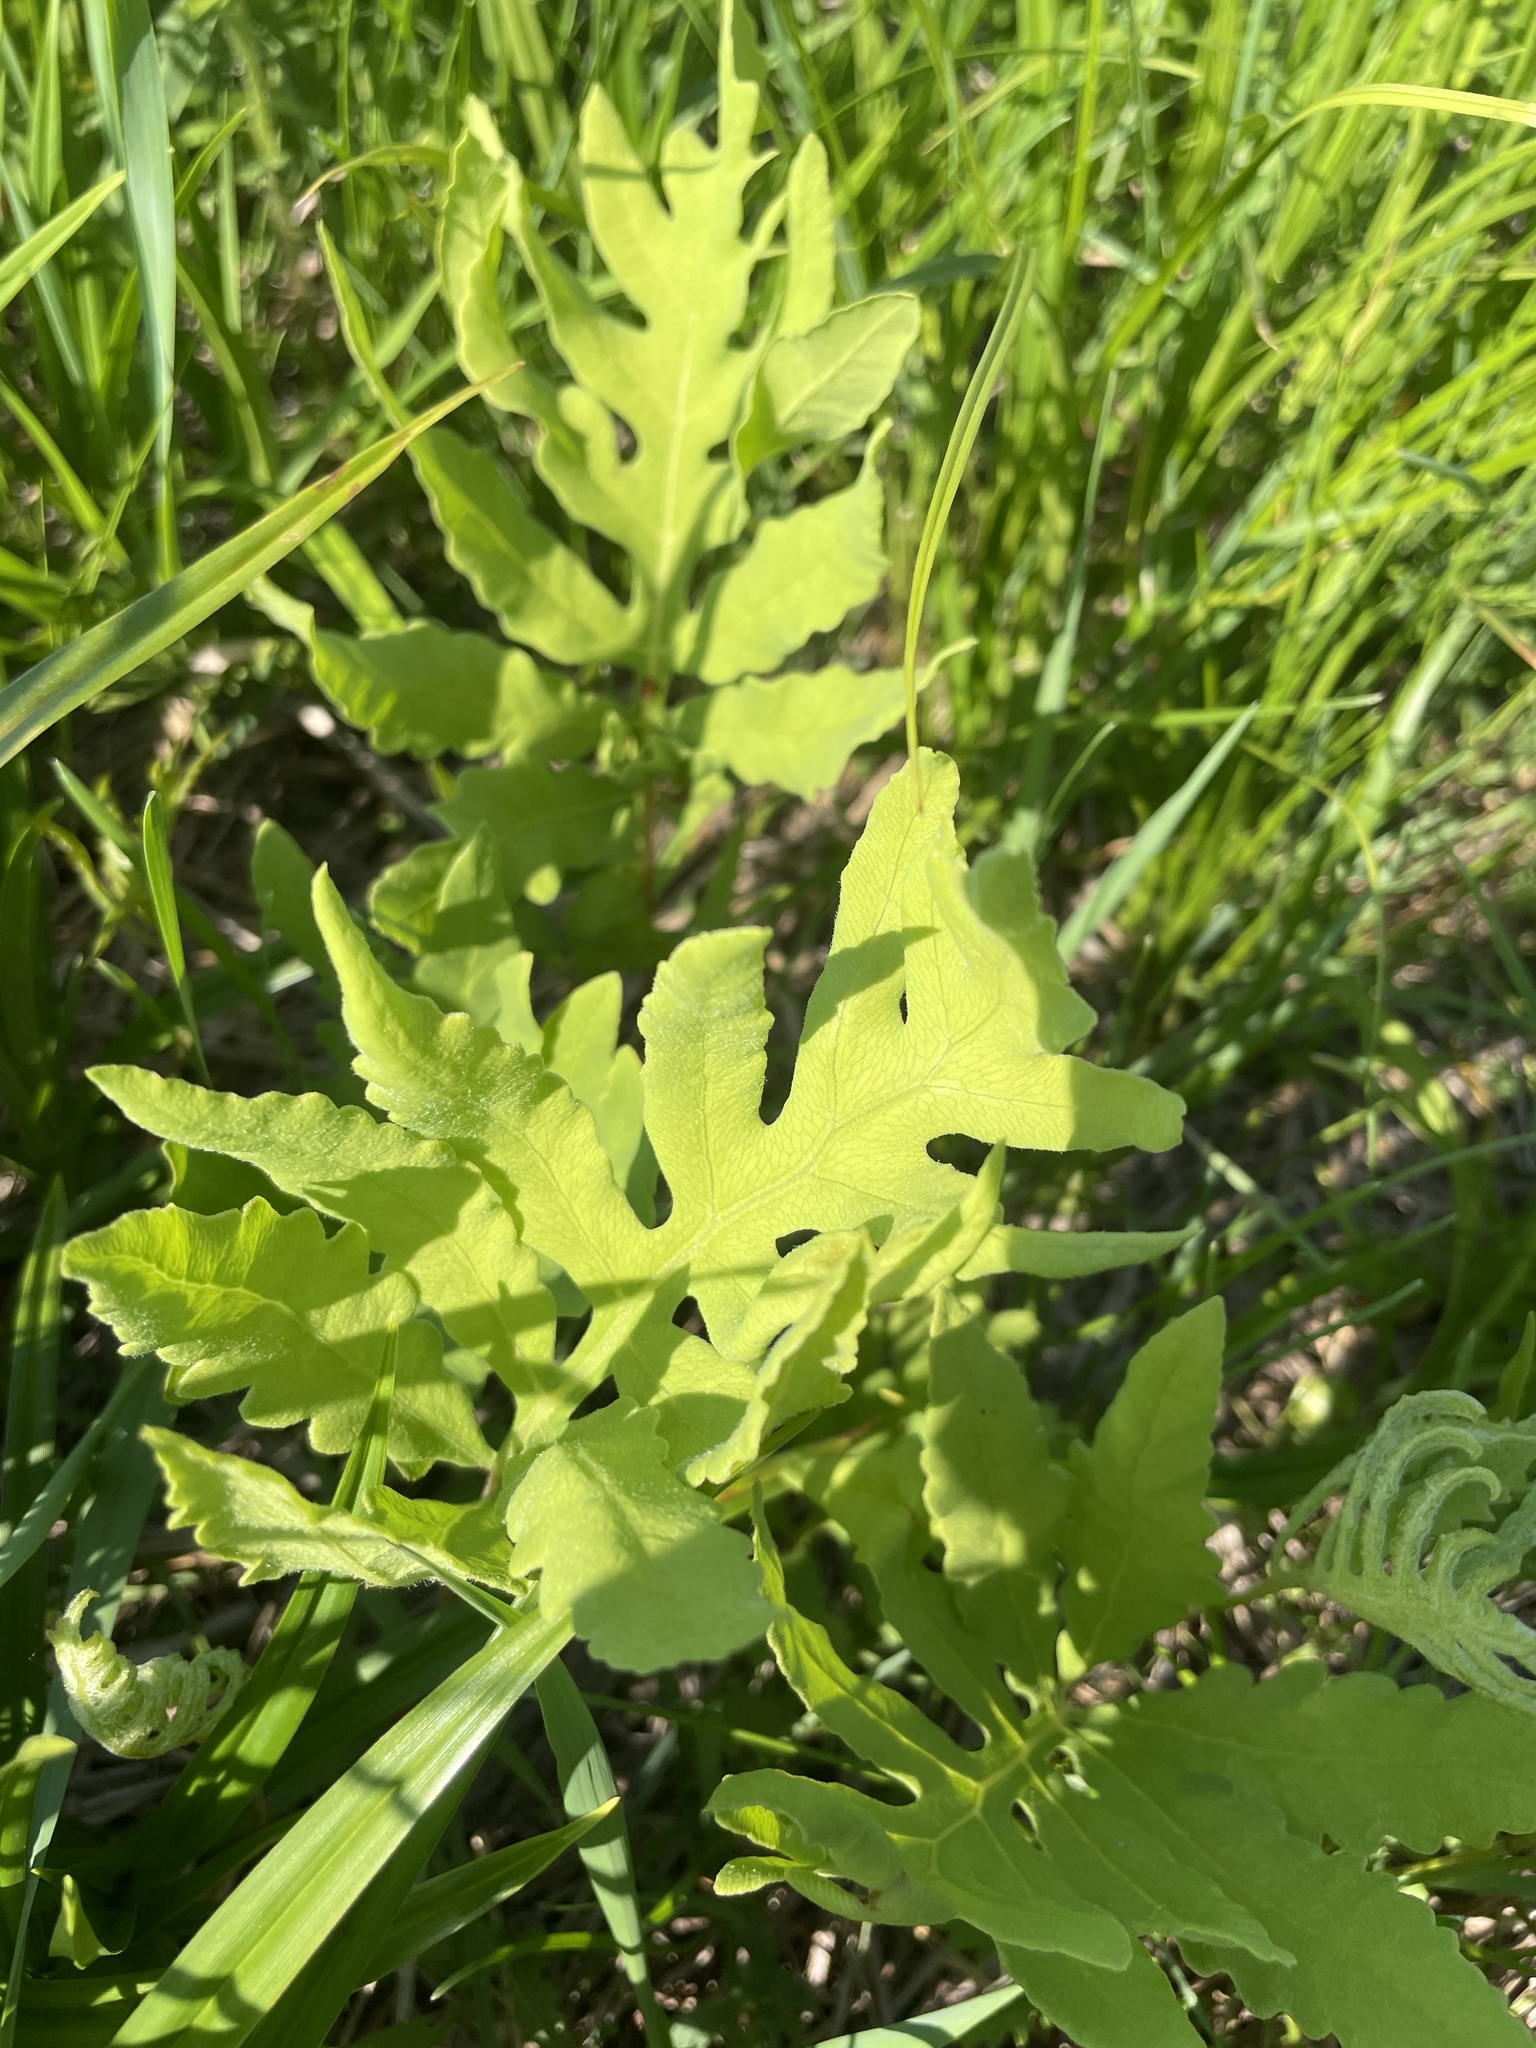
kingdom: Plantae
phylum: Tracheophyta
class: Polypodiopsida
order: Polypodiales
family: Onocleaceae
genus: Onoclea
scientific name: Onoclea sensibilis
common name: Sensitive fern
